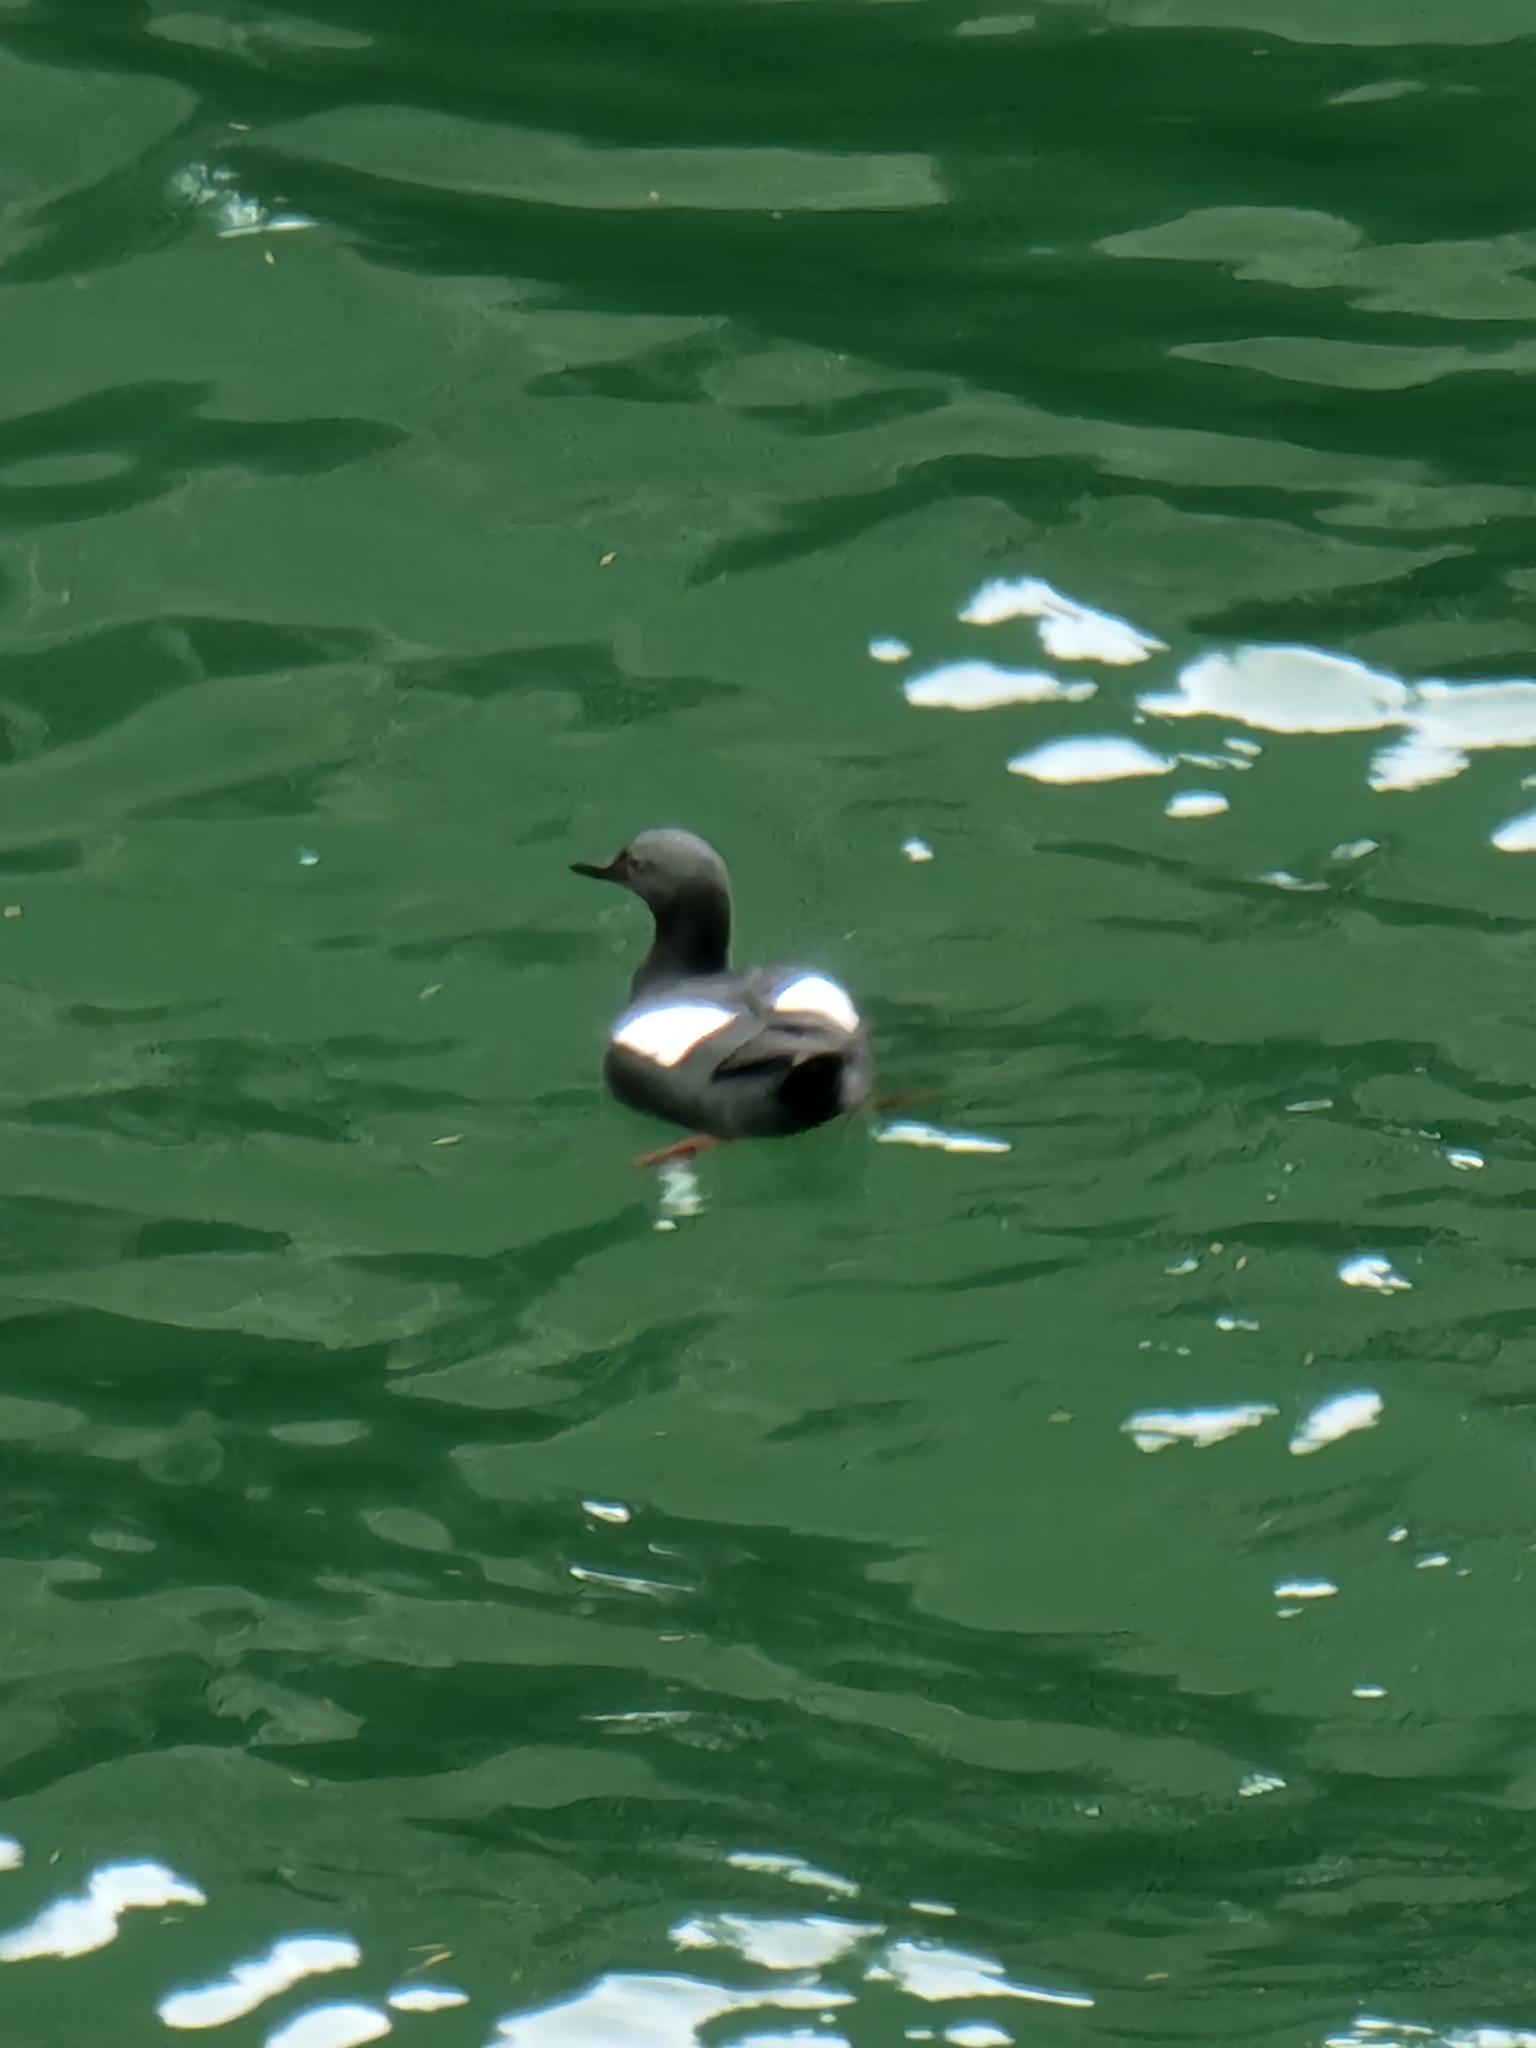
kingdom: Animalia
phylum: Chordata
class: Aves
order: Charadriiformes
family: Alcidae
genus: Cepphus
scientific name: Cepphus columba
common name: Pigeon guillemot
